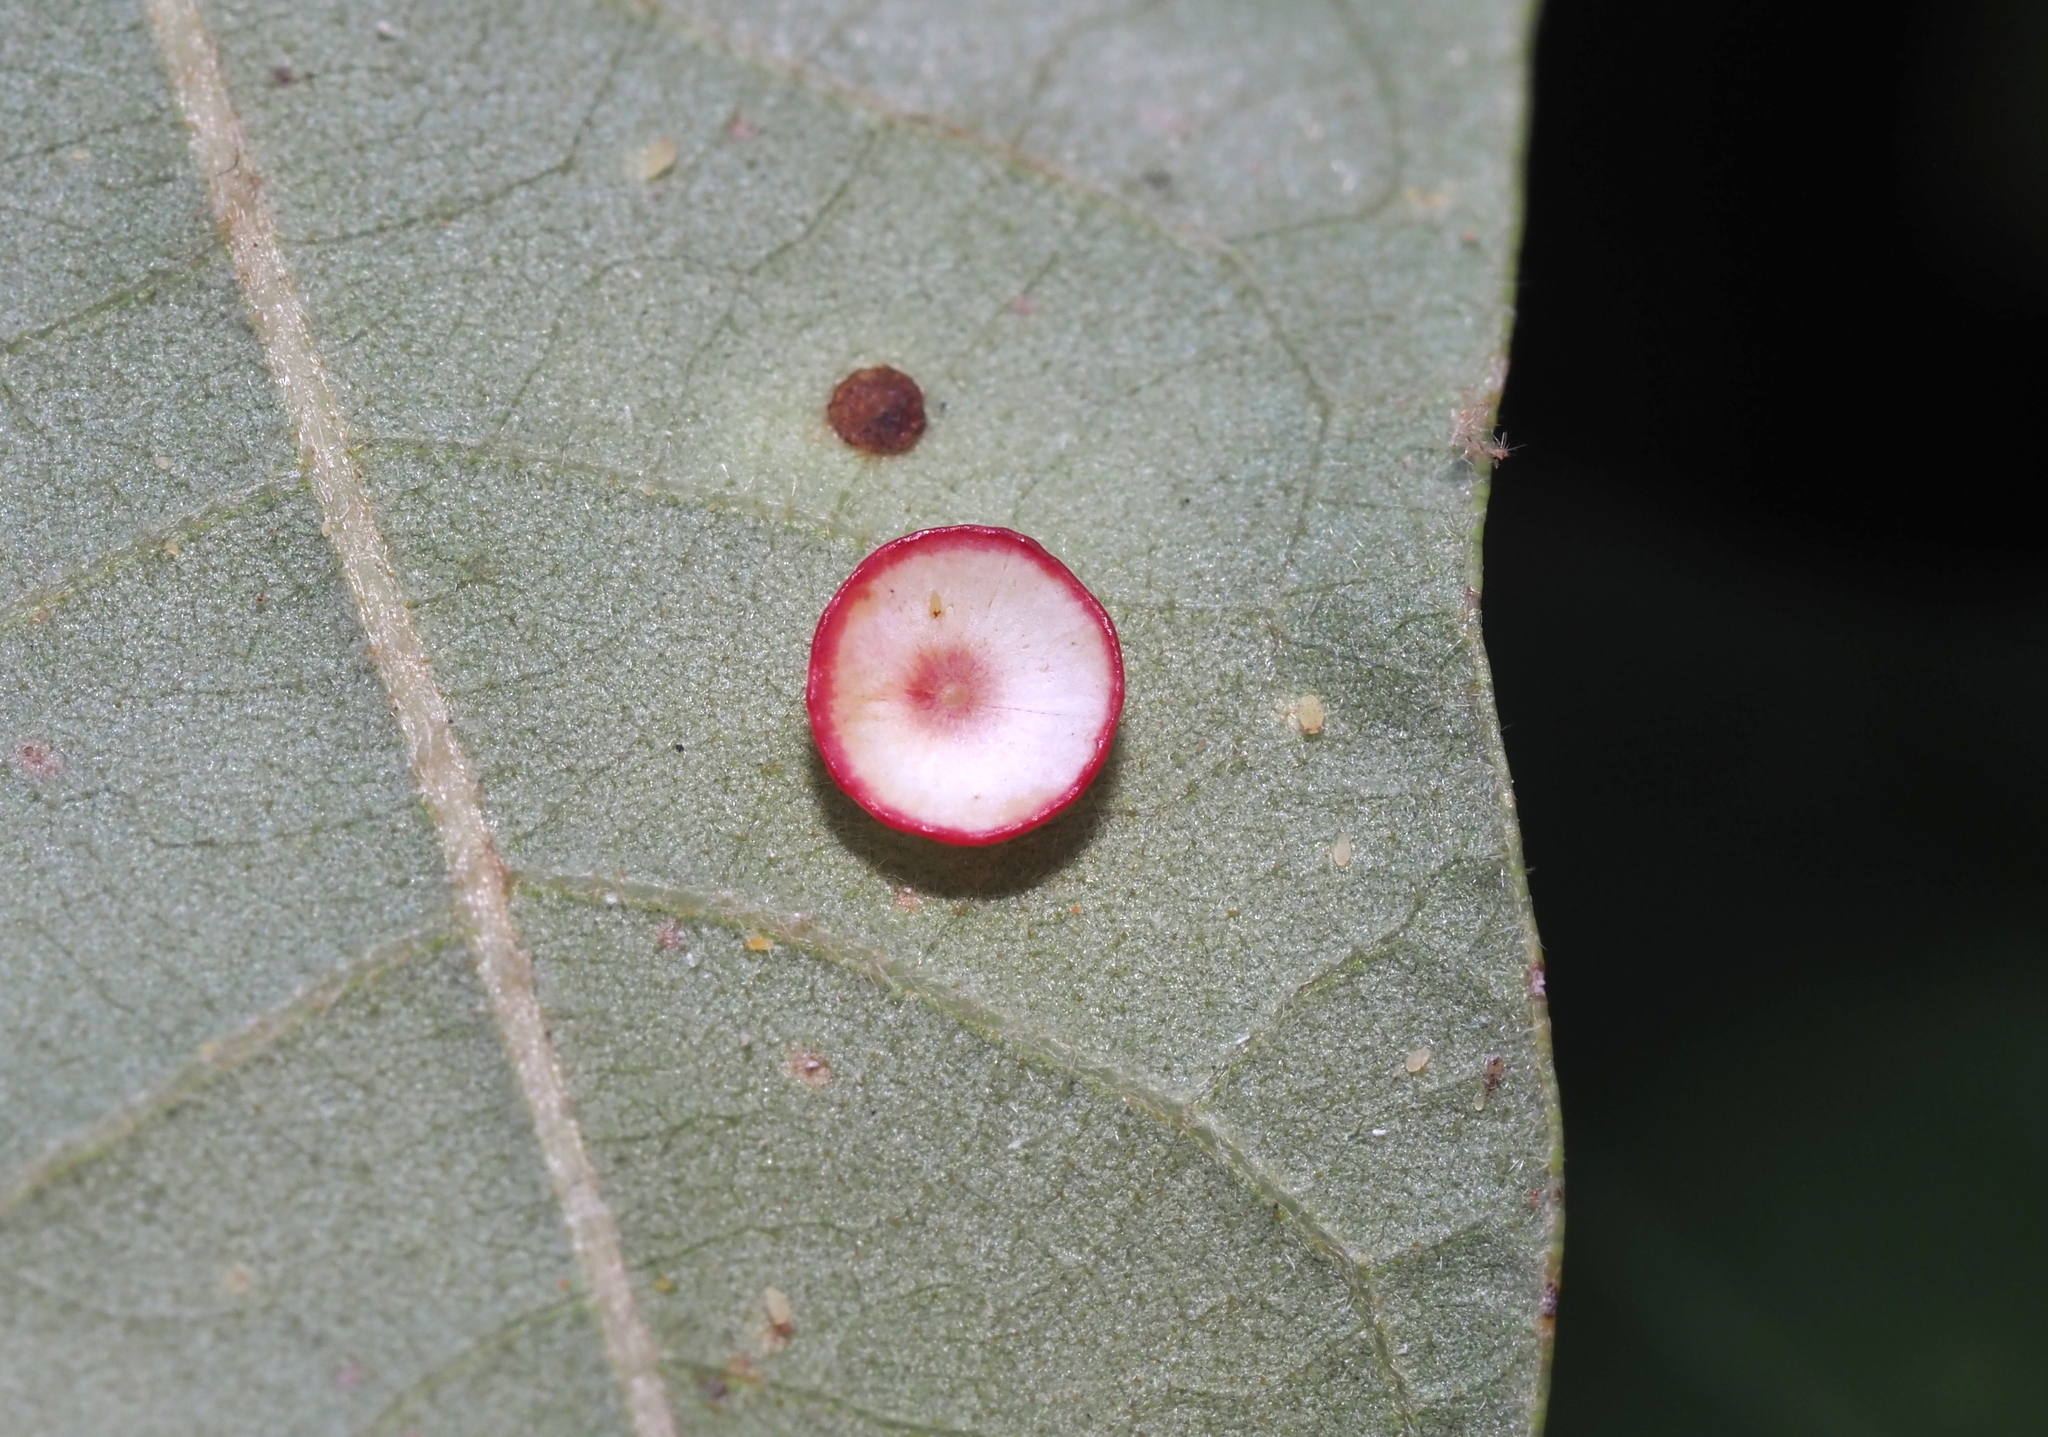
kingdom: Animalia
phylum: Arthropoda
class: Insecta
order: Hymenoptera
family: Cynipidae
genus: Phylloteras
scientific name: Phylloteras
